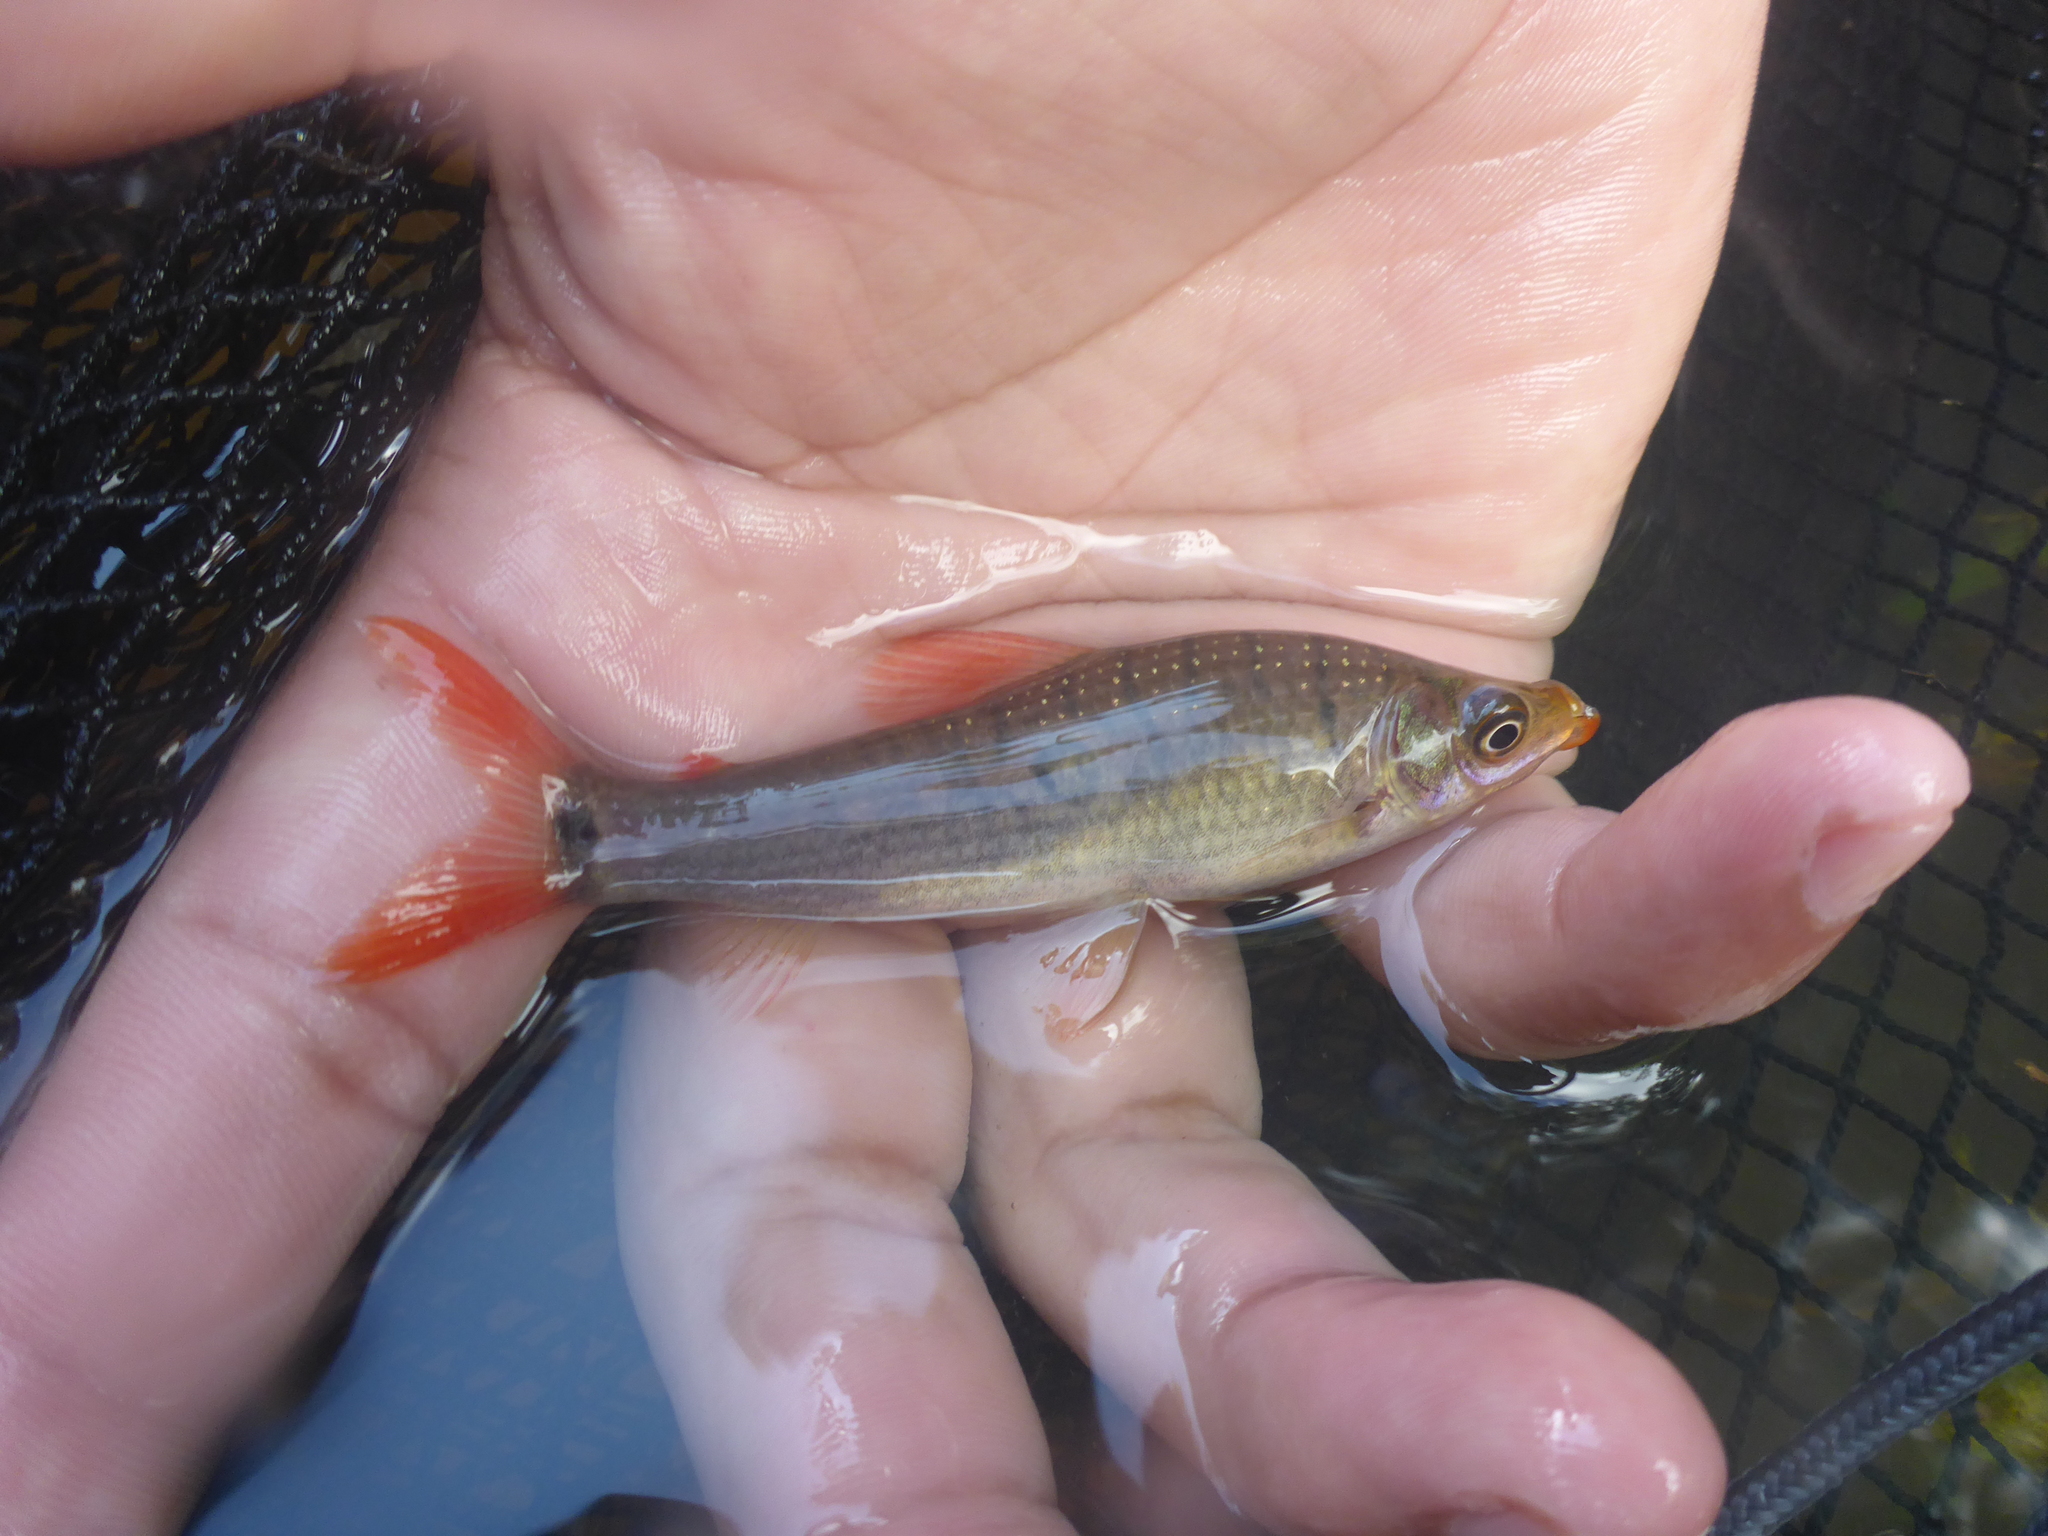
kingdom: Animalia
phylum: Chordata
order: Characiformes
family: Anostomidae
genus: Pseudanos
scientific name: Pseudanos trimaculatus
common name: Threespot headstander
